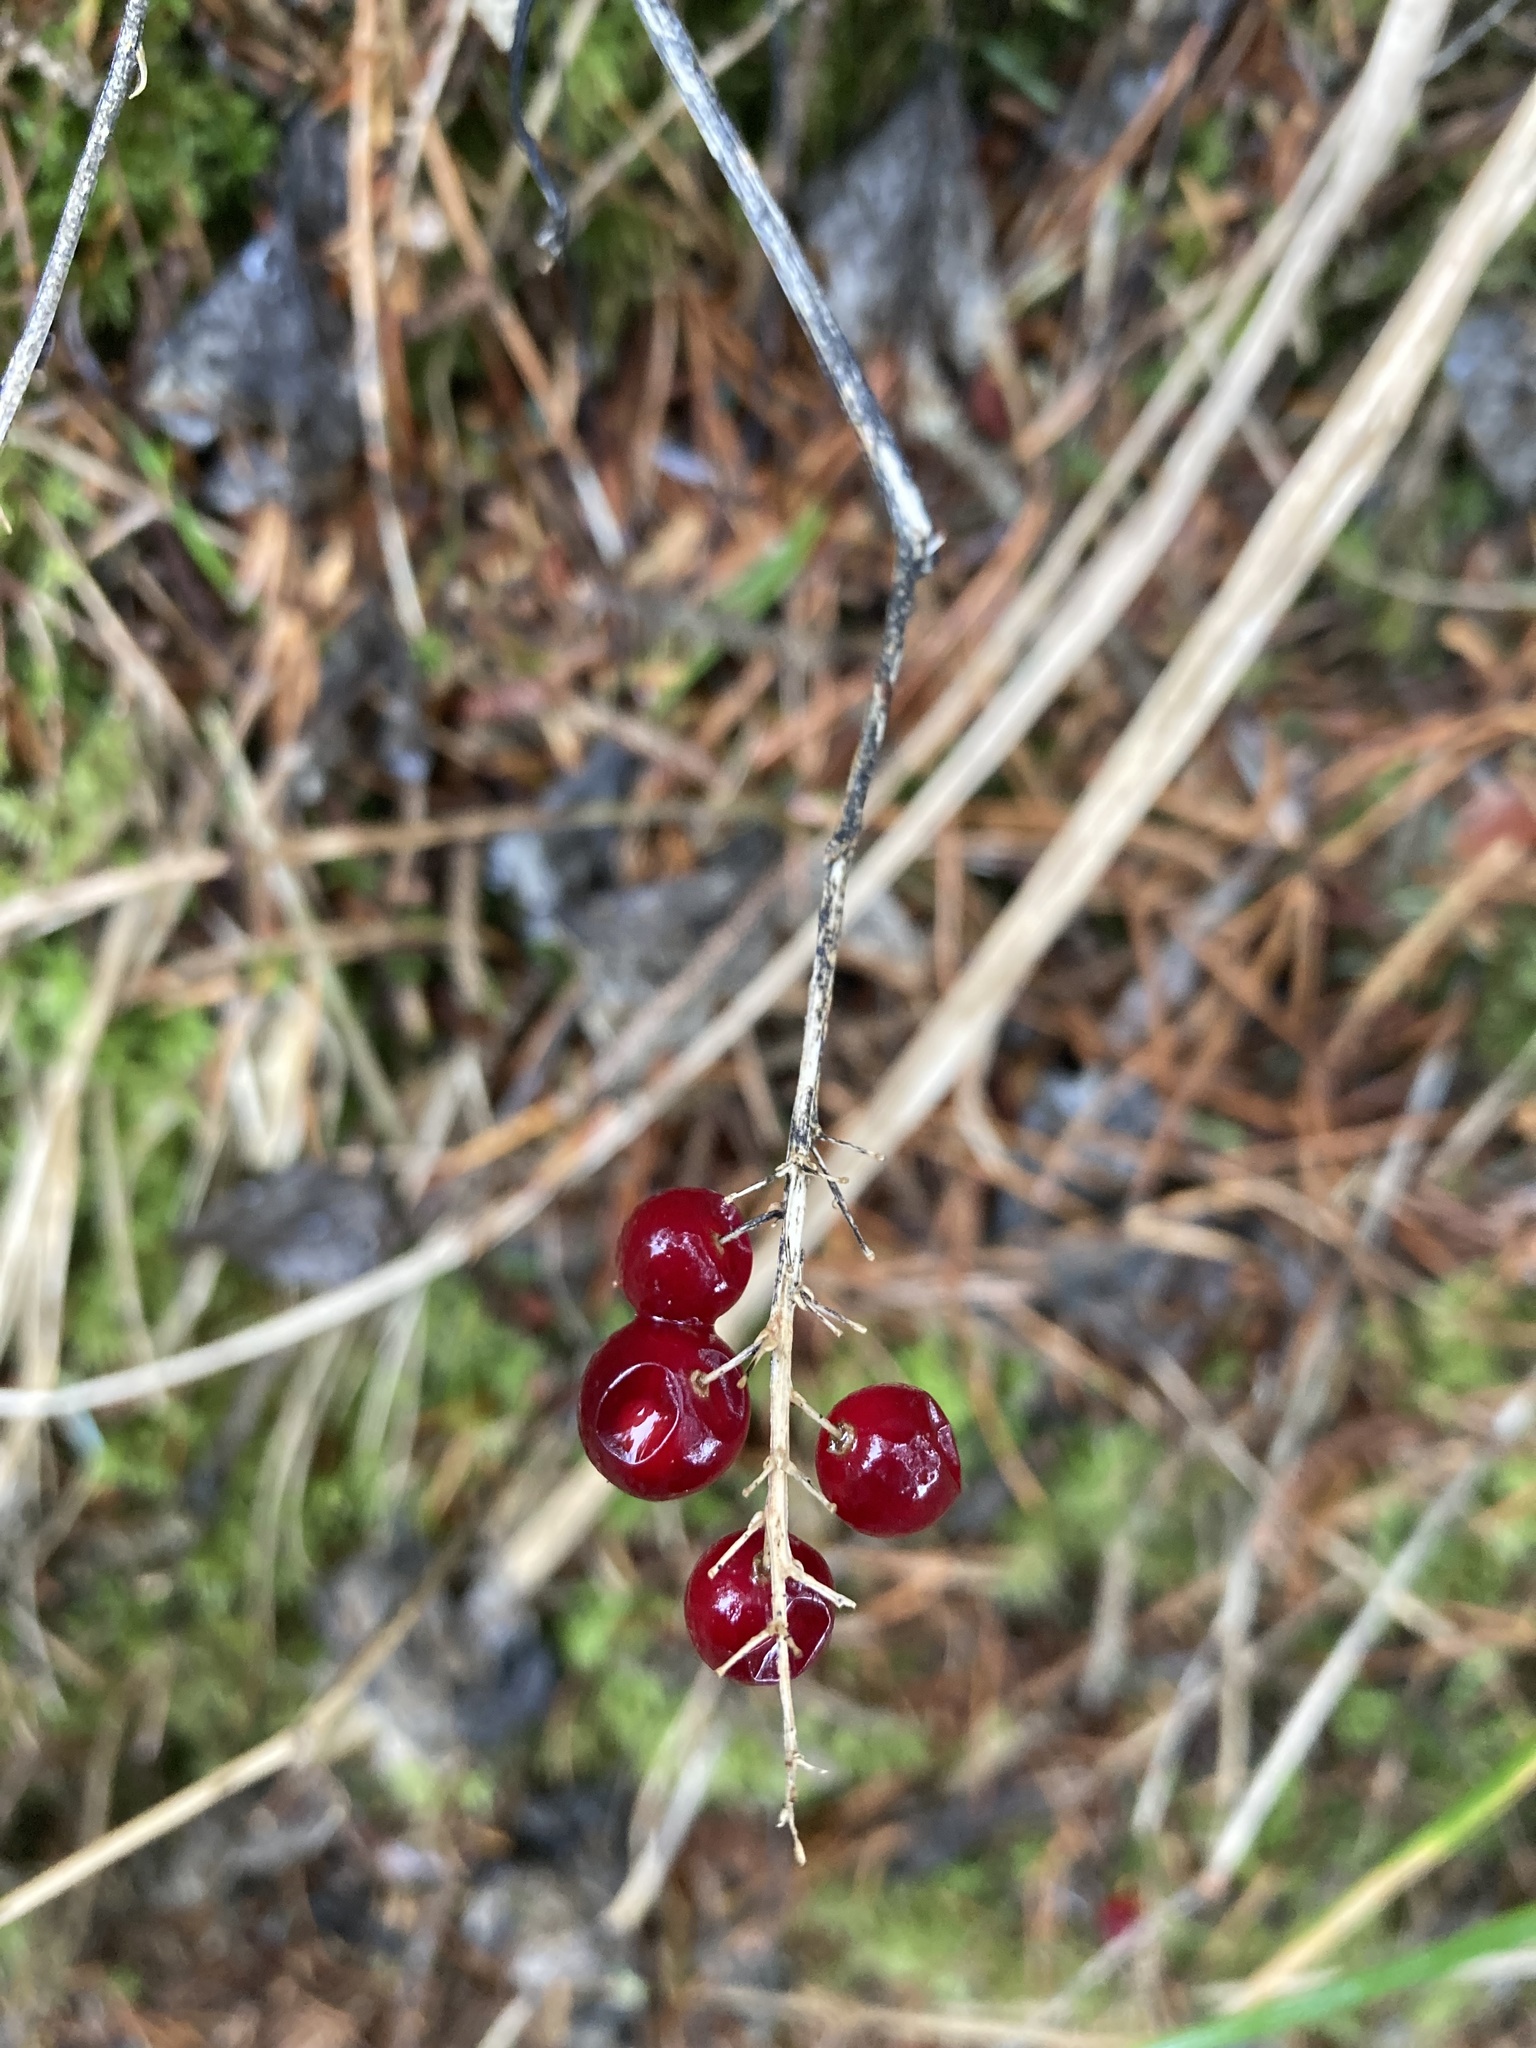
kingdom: Plantae
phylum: Tracheophyta
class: Liliopsida
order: Asparagales
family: Asparagaceae
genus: Maianthemum
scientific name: Maianthemum dilatatum
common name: False lily-of-the-valley
